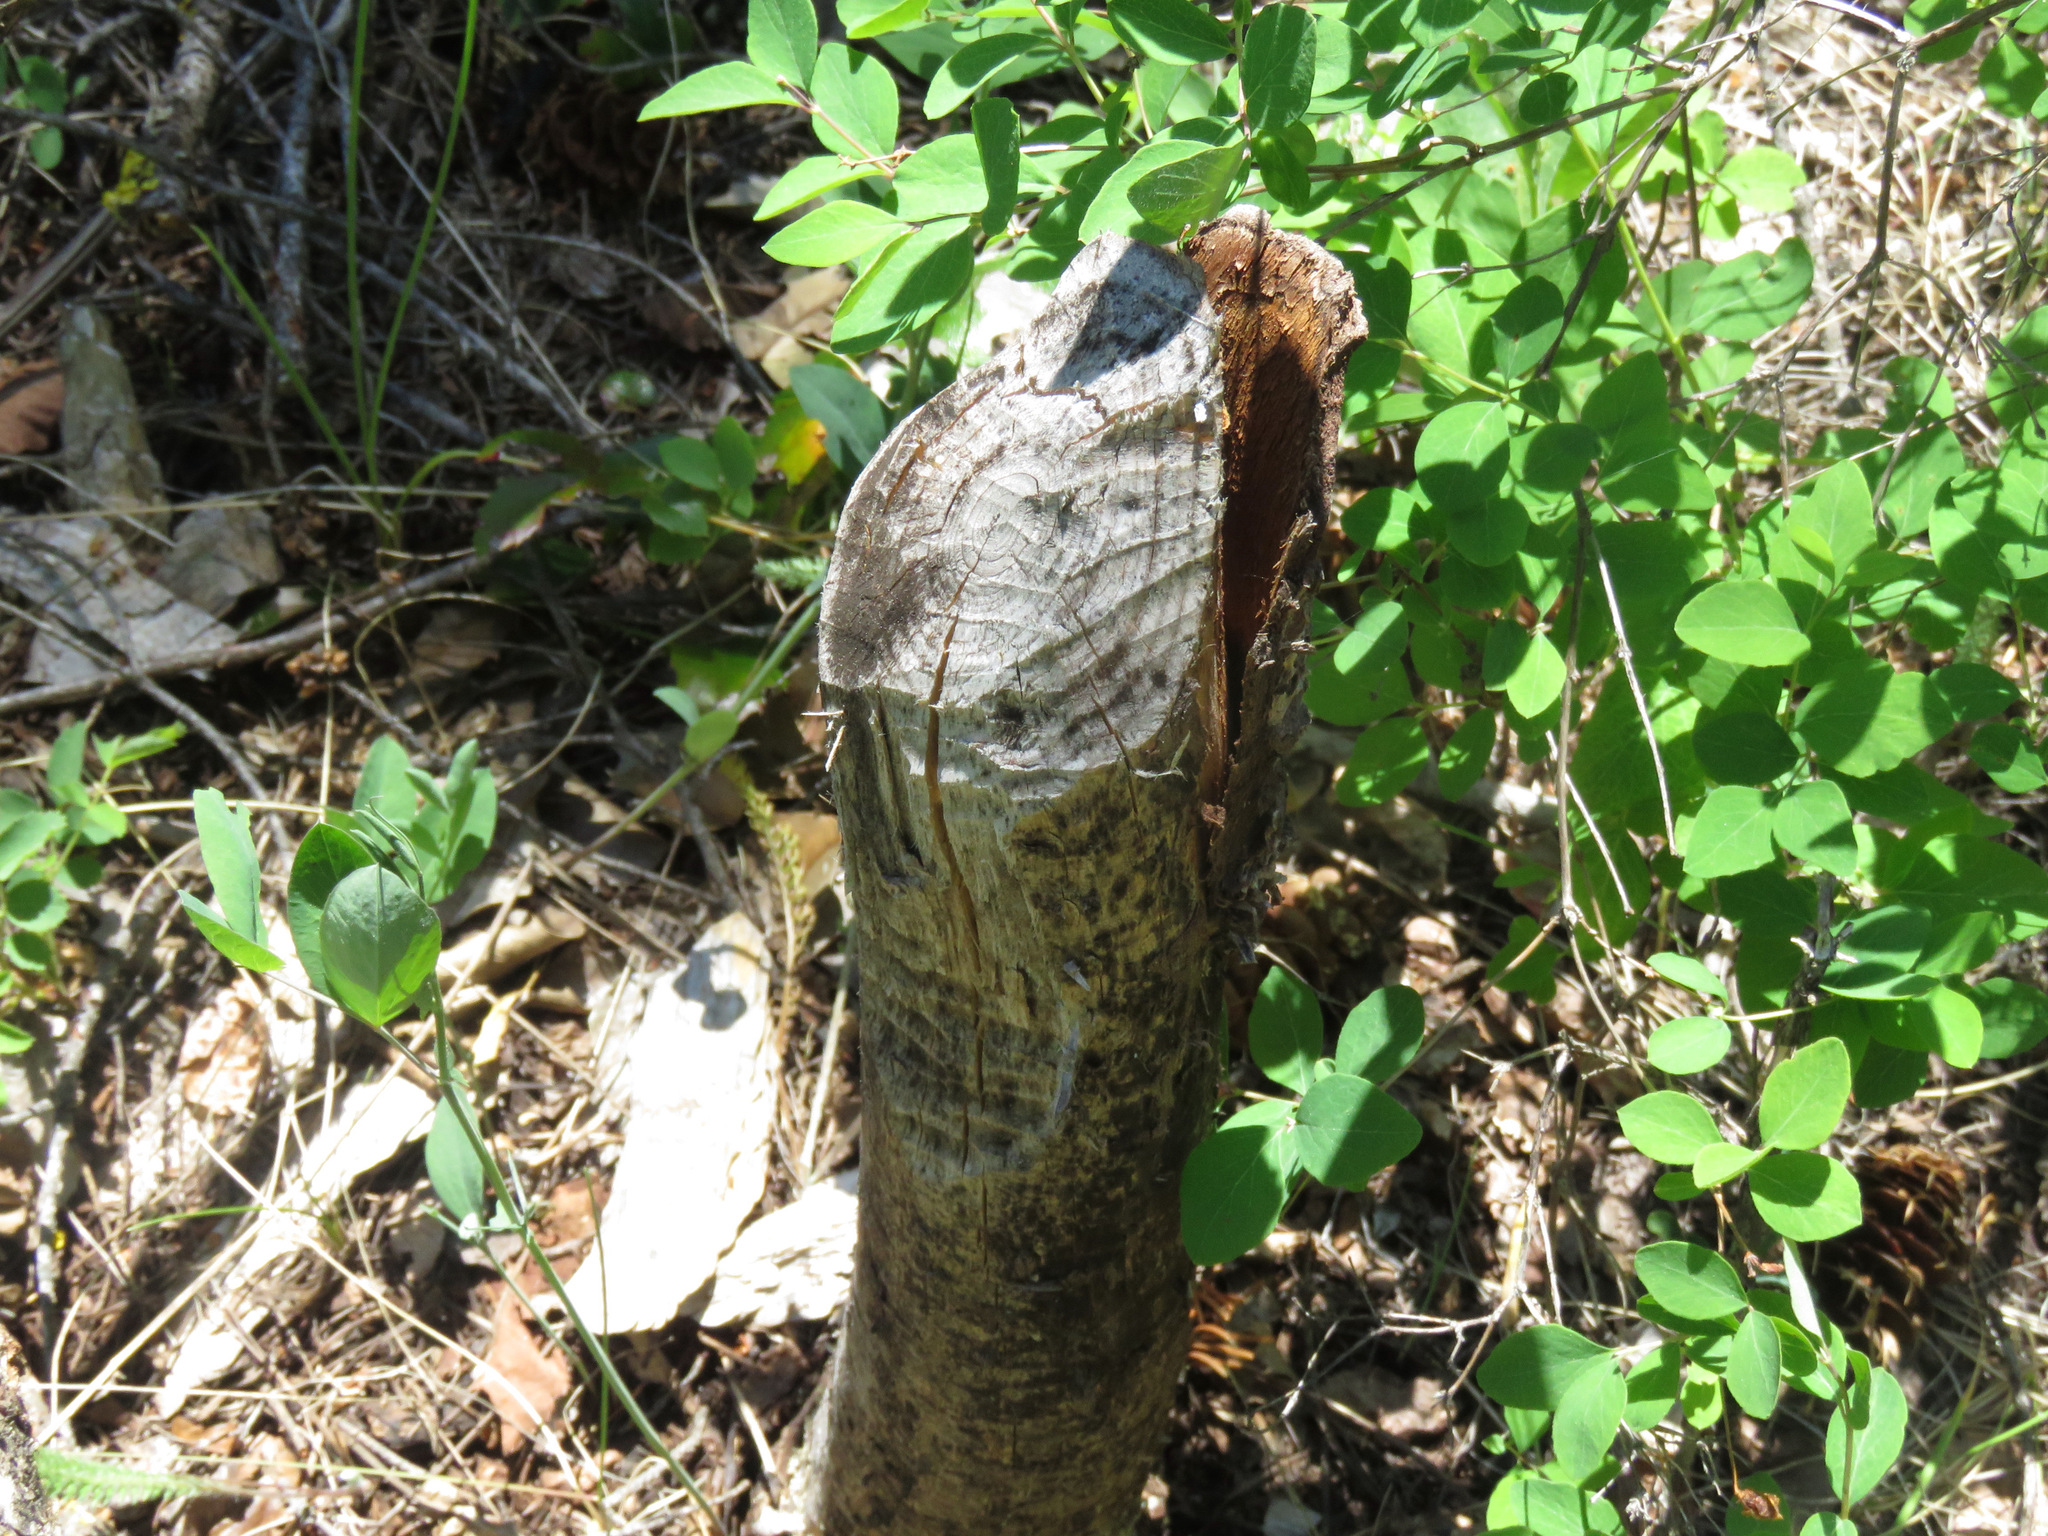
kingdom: Animalia
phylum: Chordata
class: Mammalia
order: Rodentia
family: Castoridae
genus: Castor
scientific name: Castor canadensis
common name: American beaver
